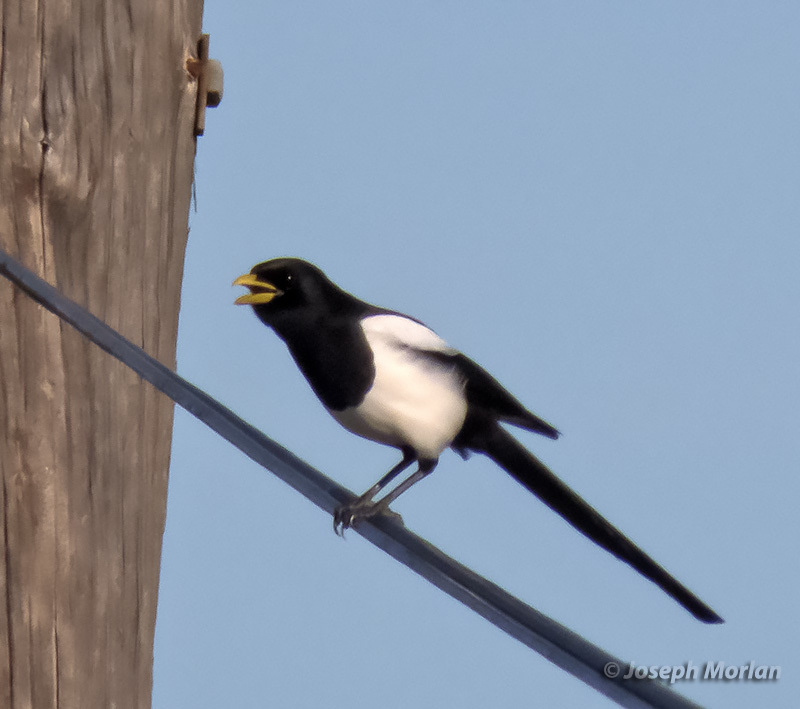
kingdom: Animalia
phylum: Chordata
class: Aves
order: Passeriformes
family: Corvidae
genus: Pica
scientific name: Pica nuttalli
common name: Yellow-billed magpie
